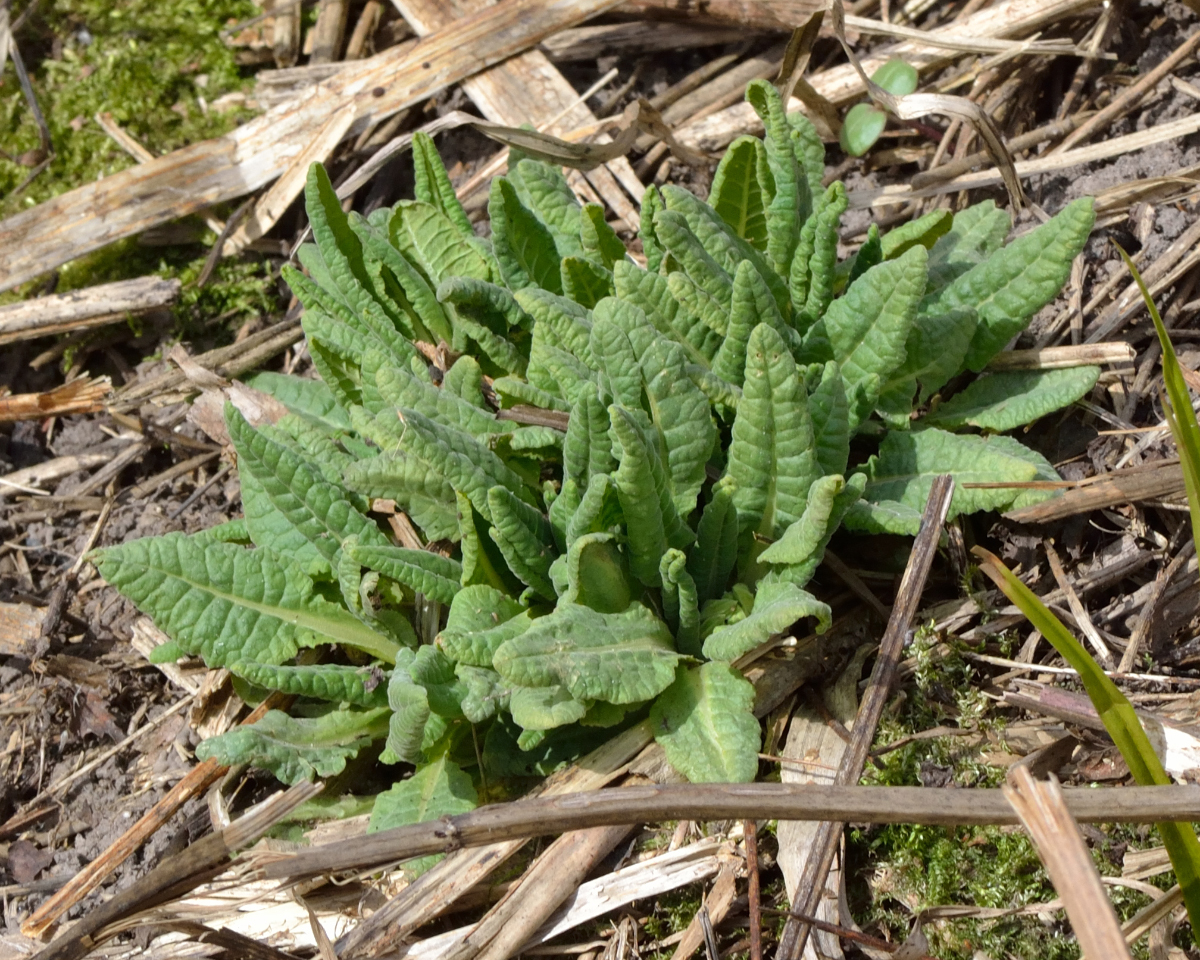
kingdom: Plantae
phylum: Tracheophyta
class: Magnoliopsida
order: Ericales
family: Primulaceae
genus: Primula
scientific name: Primula veris
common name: Cowslip
